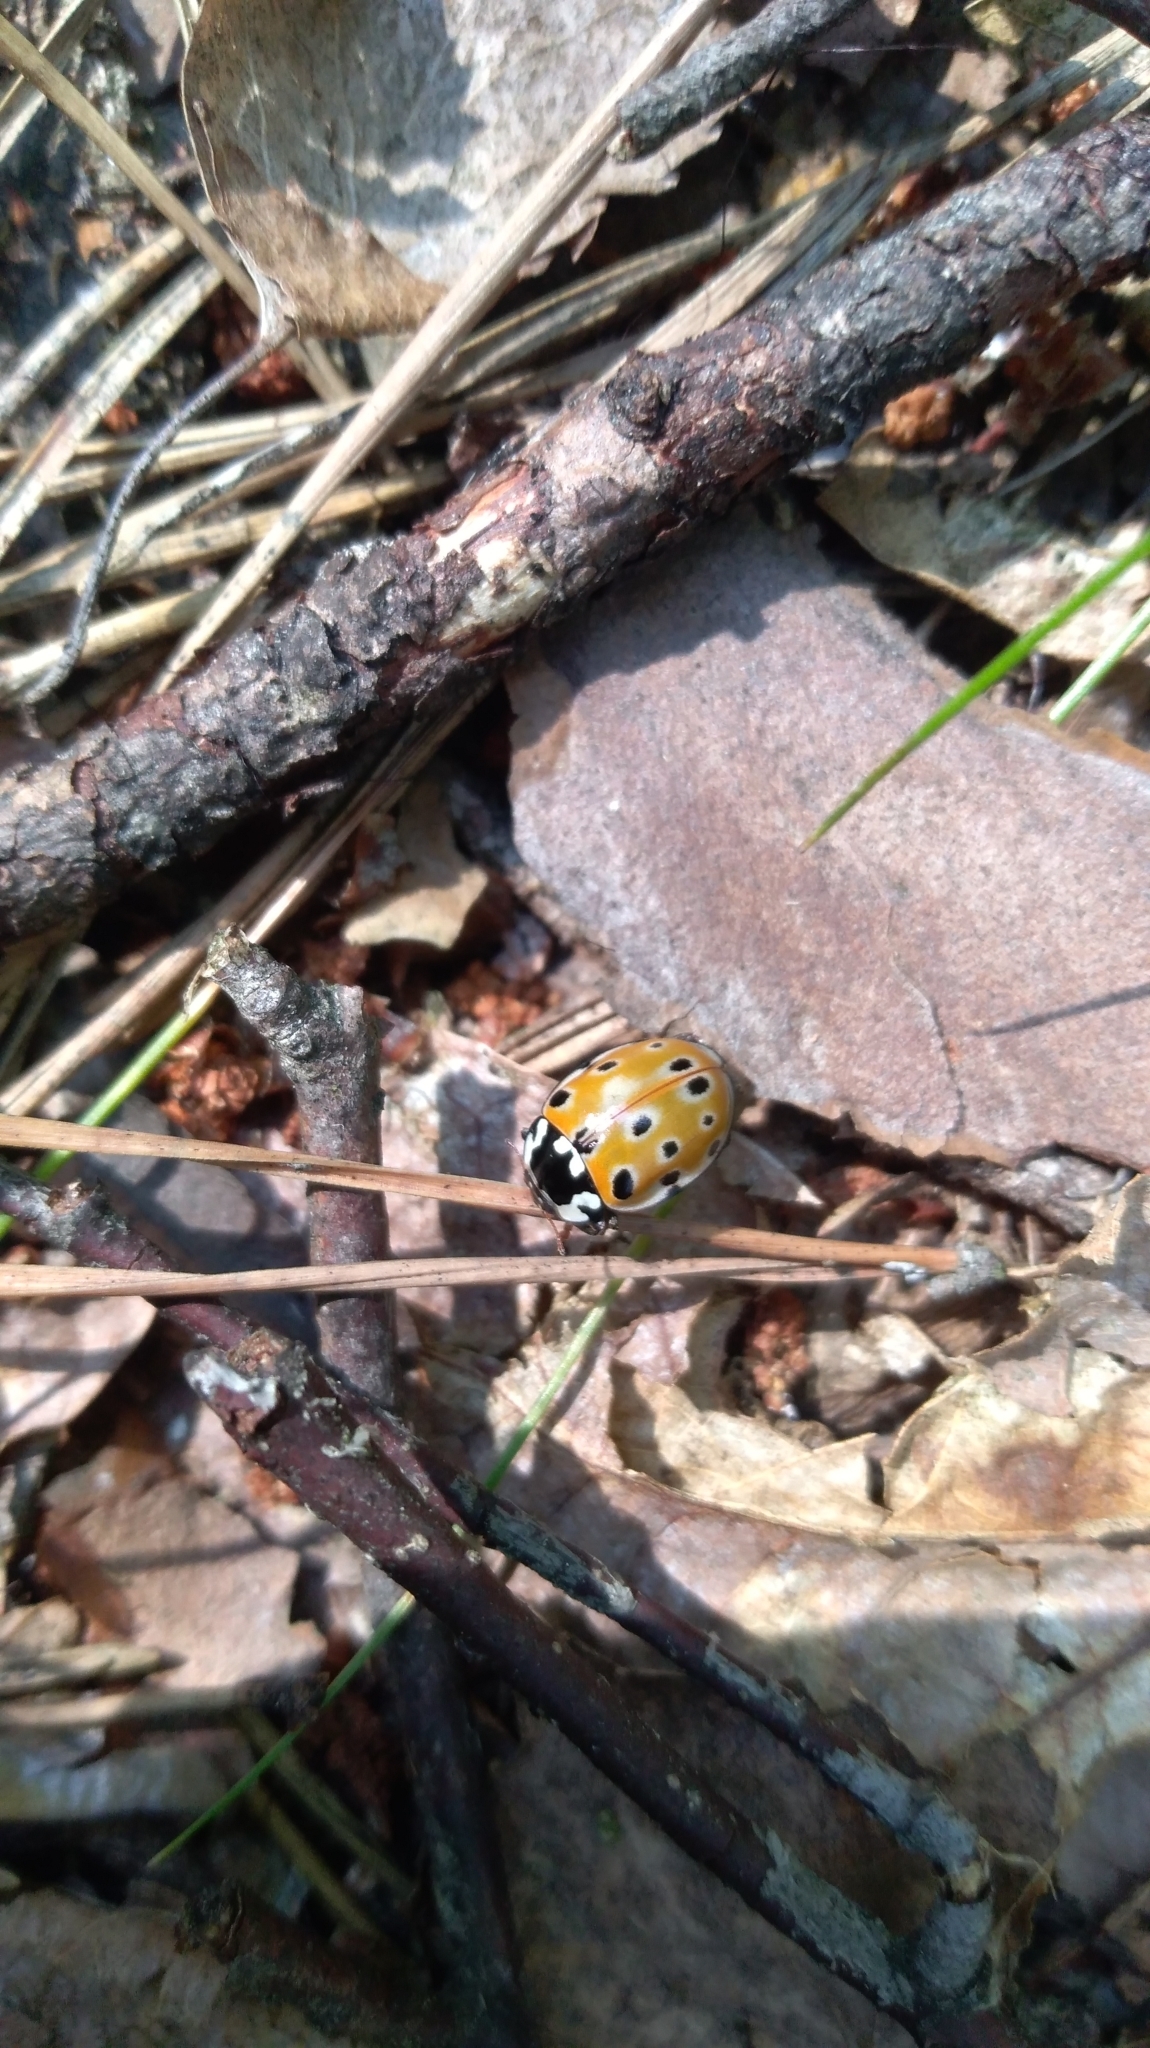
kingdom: Animalia
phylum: Arthropoda
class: Insecta
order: Coleoptera
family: Coccinellidae
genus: Anatis
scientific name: Anatis ocellata
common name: Eyed ladybird
